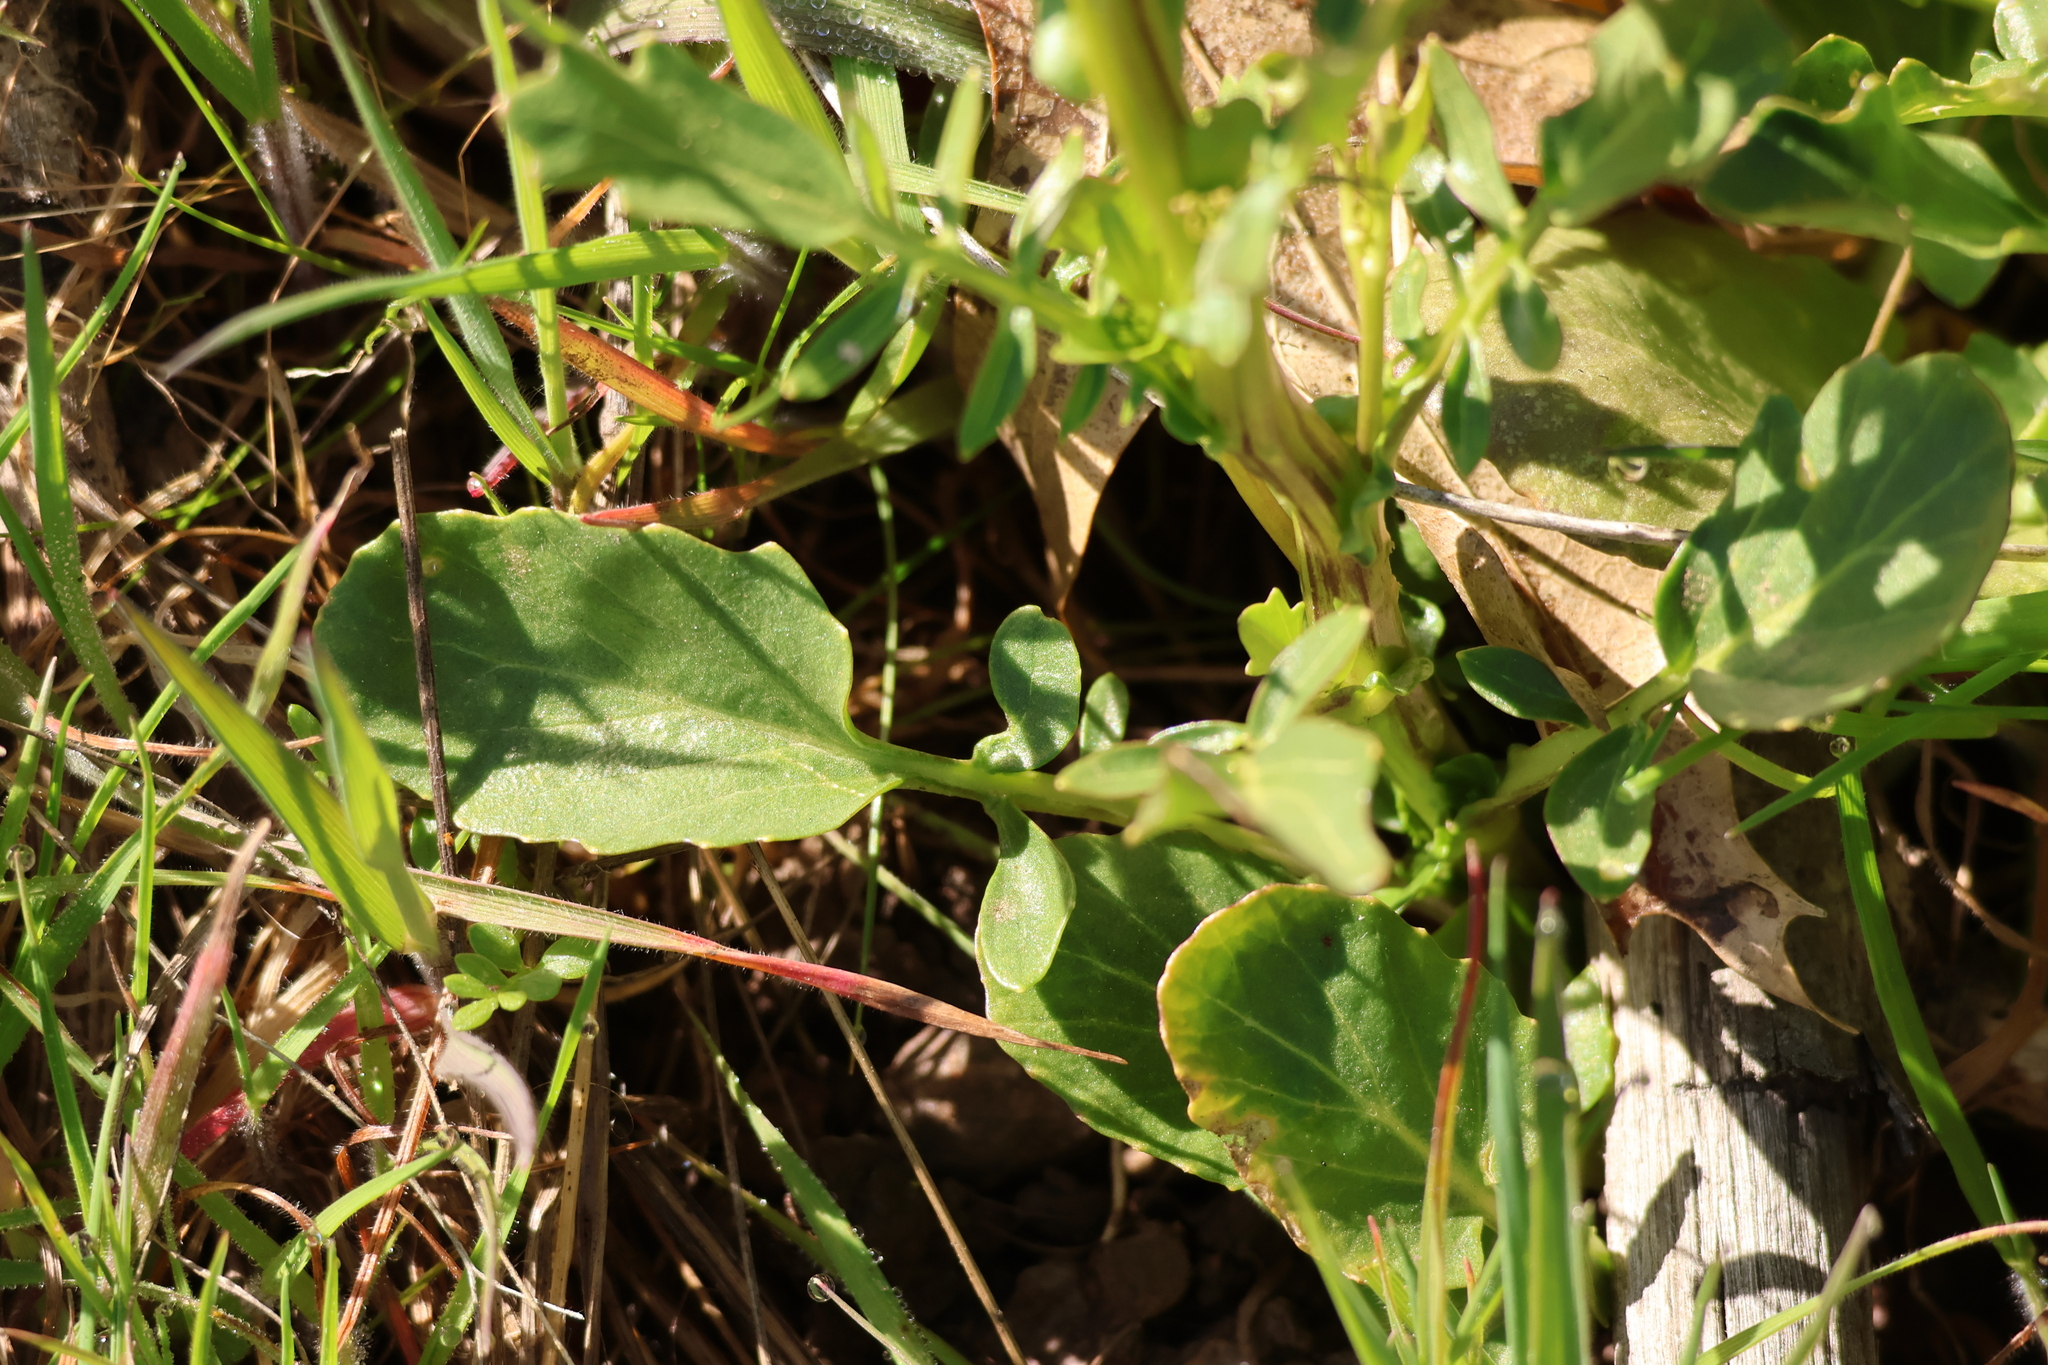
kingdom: Plantae
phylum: Tracheophyta
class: Magnoliopsida
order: Brassicales
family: Brassicaceae
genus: Barbarea
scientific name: Barbarea orthoceras
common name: American wintercress
